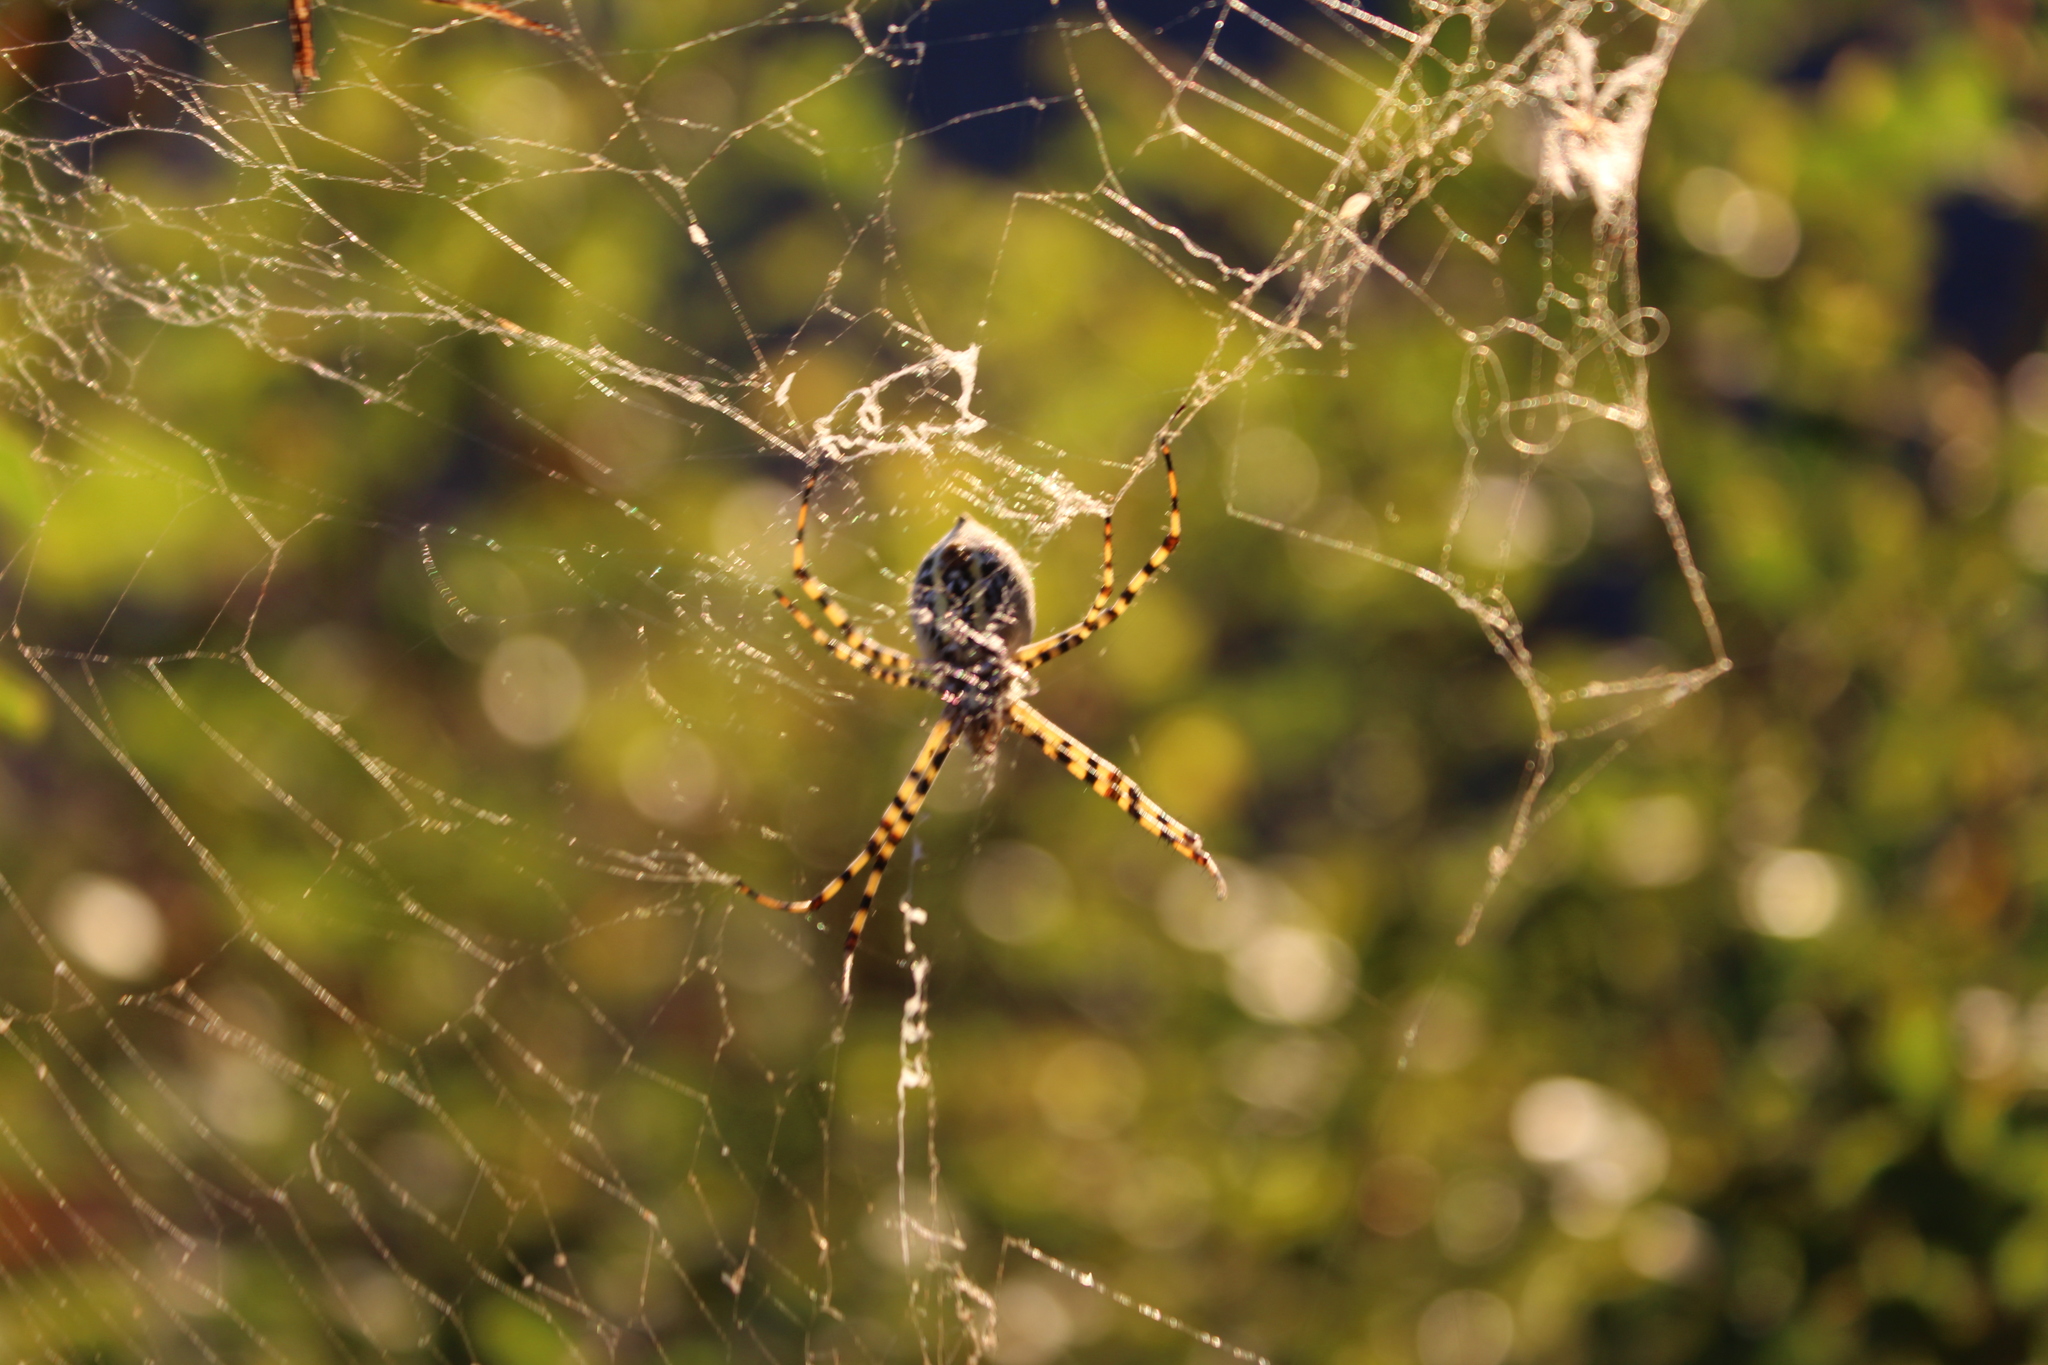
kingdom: Animalia
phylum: Arthropoda
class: Arachnida
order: Araneae
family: Araneidae
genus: Argiope
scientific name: Argiope trifasciata
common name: Banded garden spider
